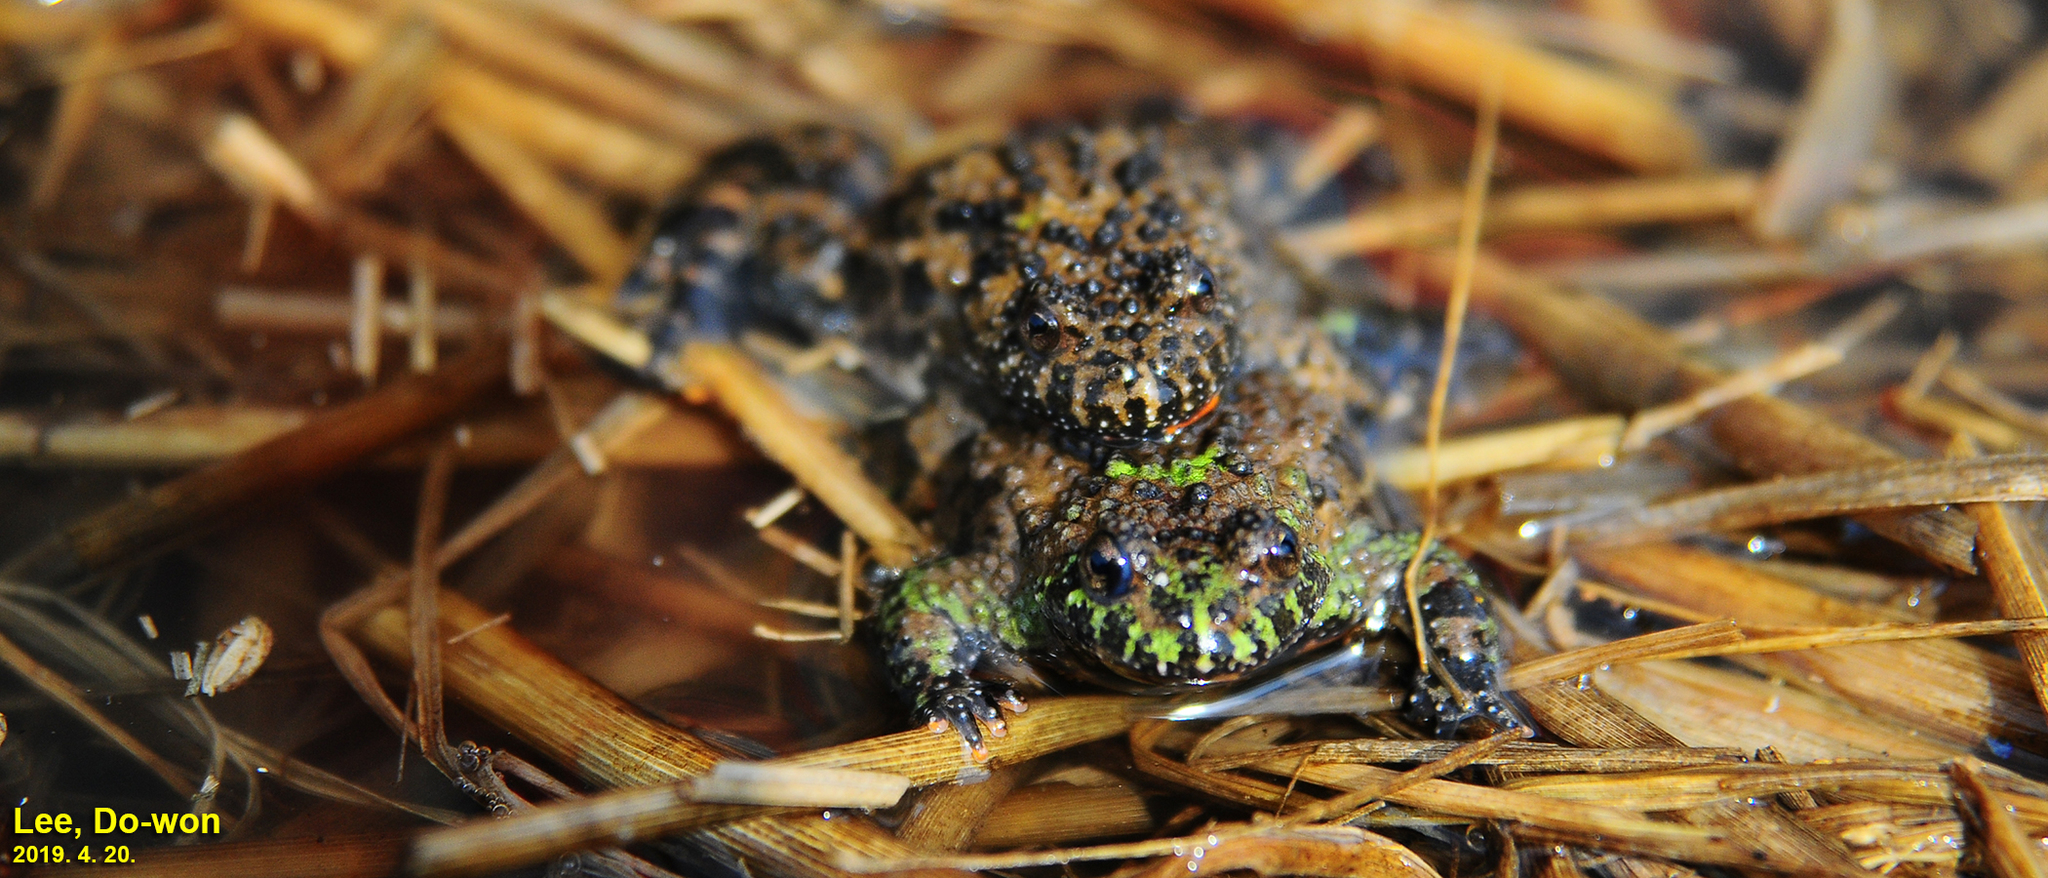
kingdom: Animalia
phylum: Chordata
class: Amphibia
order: Anura
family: Bombinatoridae
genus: Bombina
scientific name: Bombina orientalis
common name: Oriental firebelly toad
